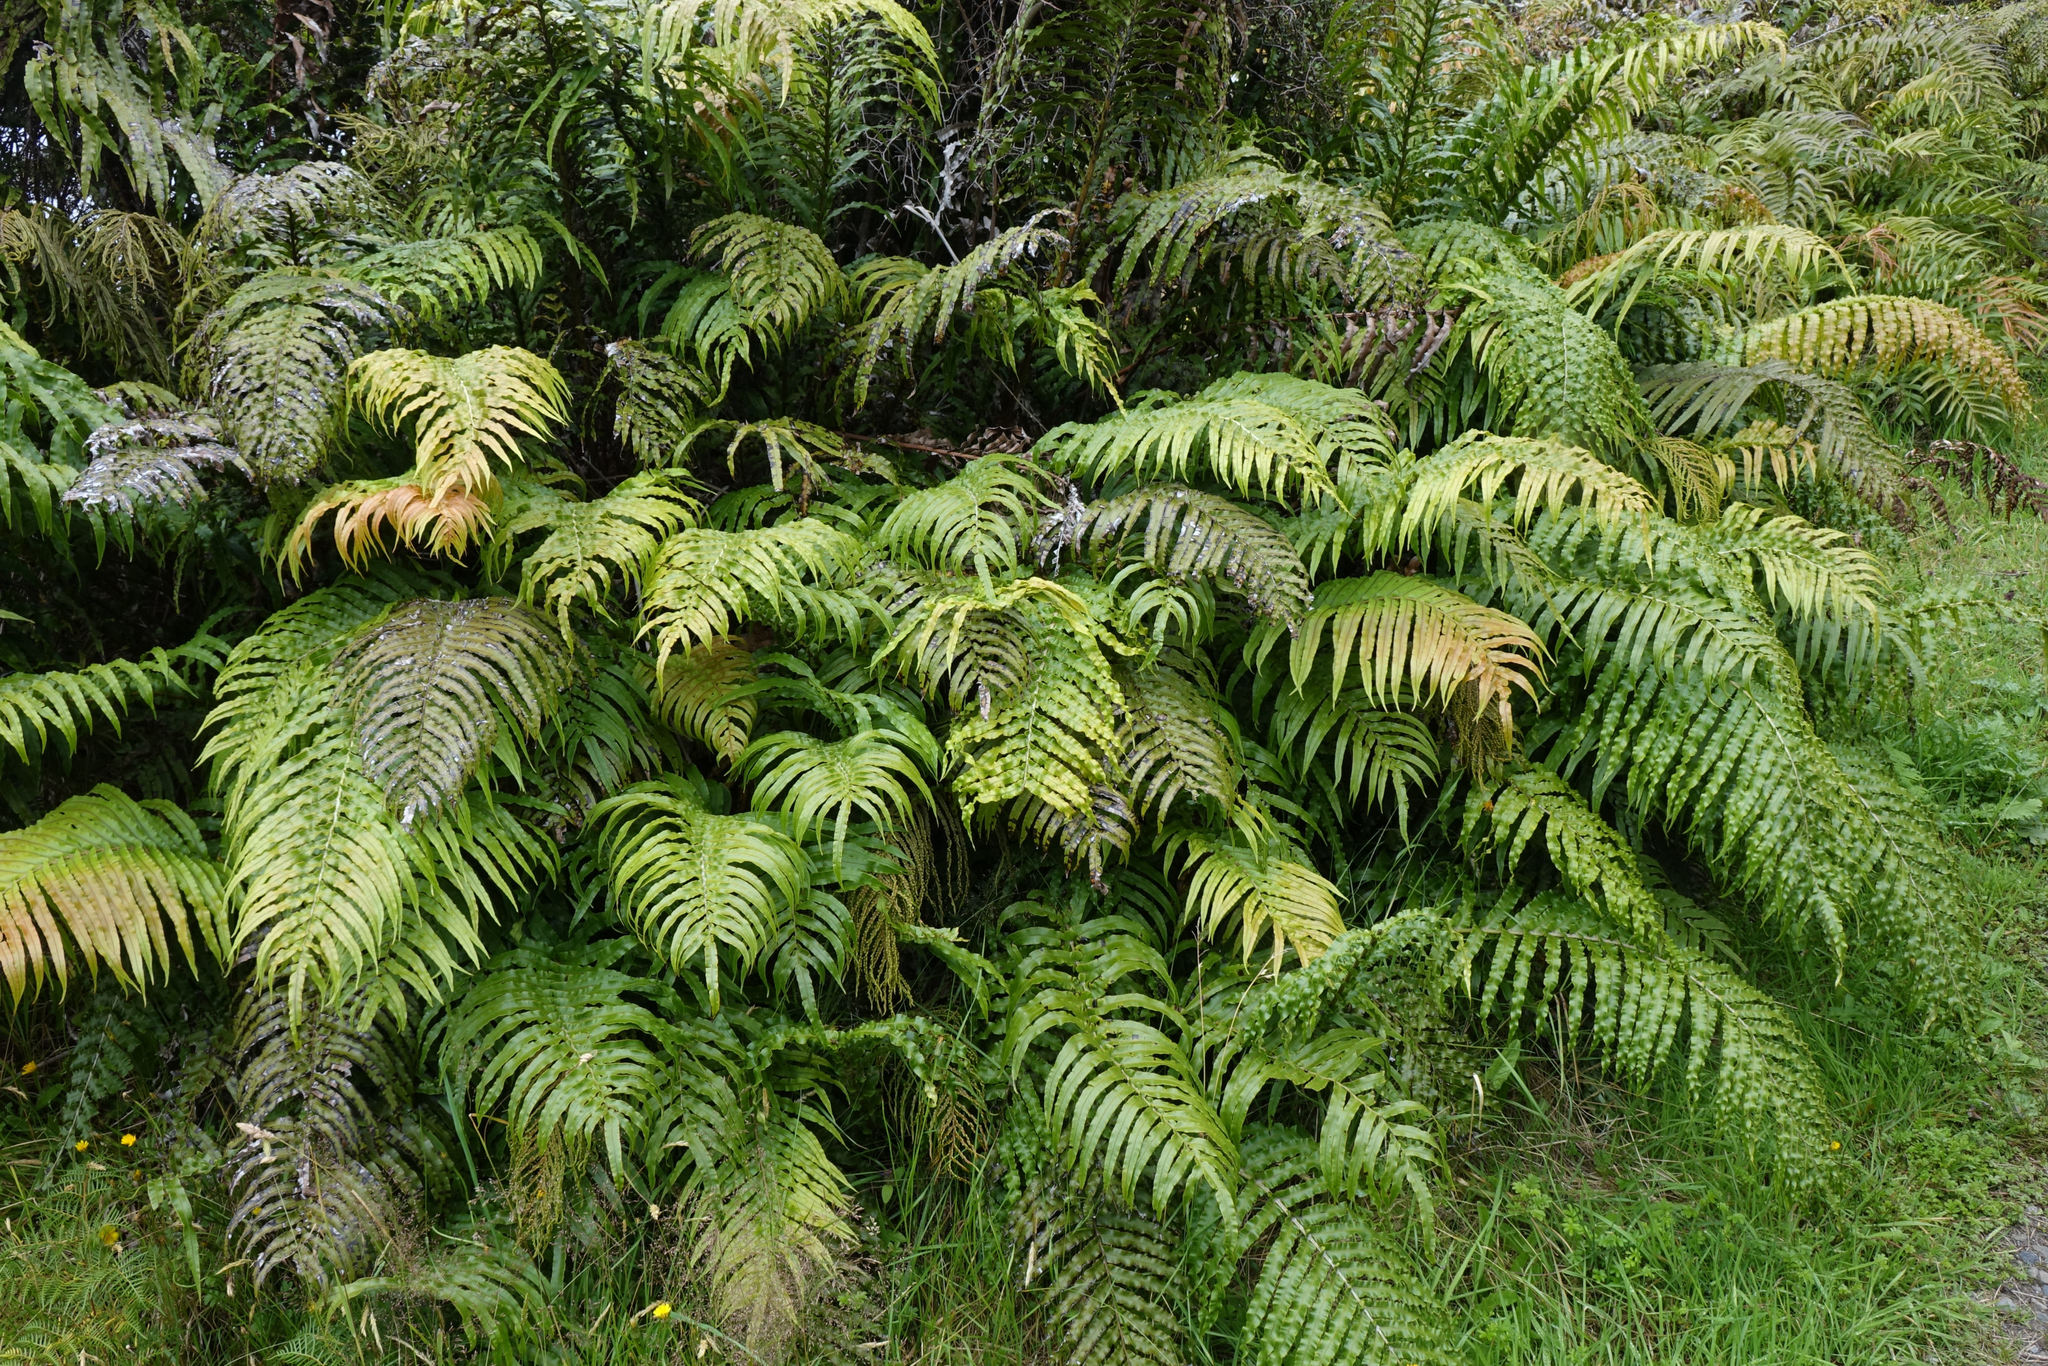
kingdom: Plantae
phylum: Tracheophyta
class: Polypodiopsida
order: Polypodiales
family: Blechnaceae
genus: Parablechnum
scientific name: Parablechnum novae-zelandiae
